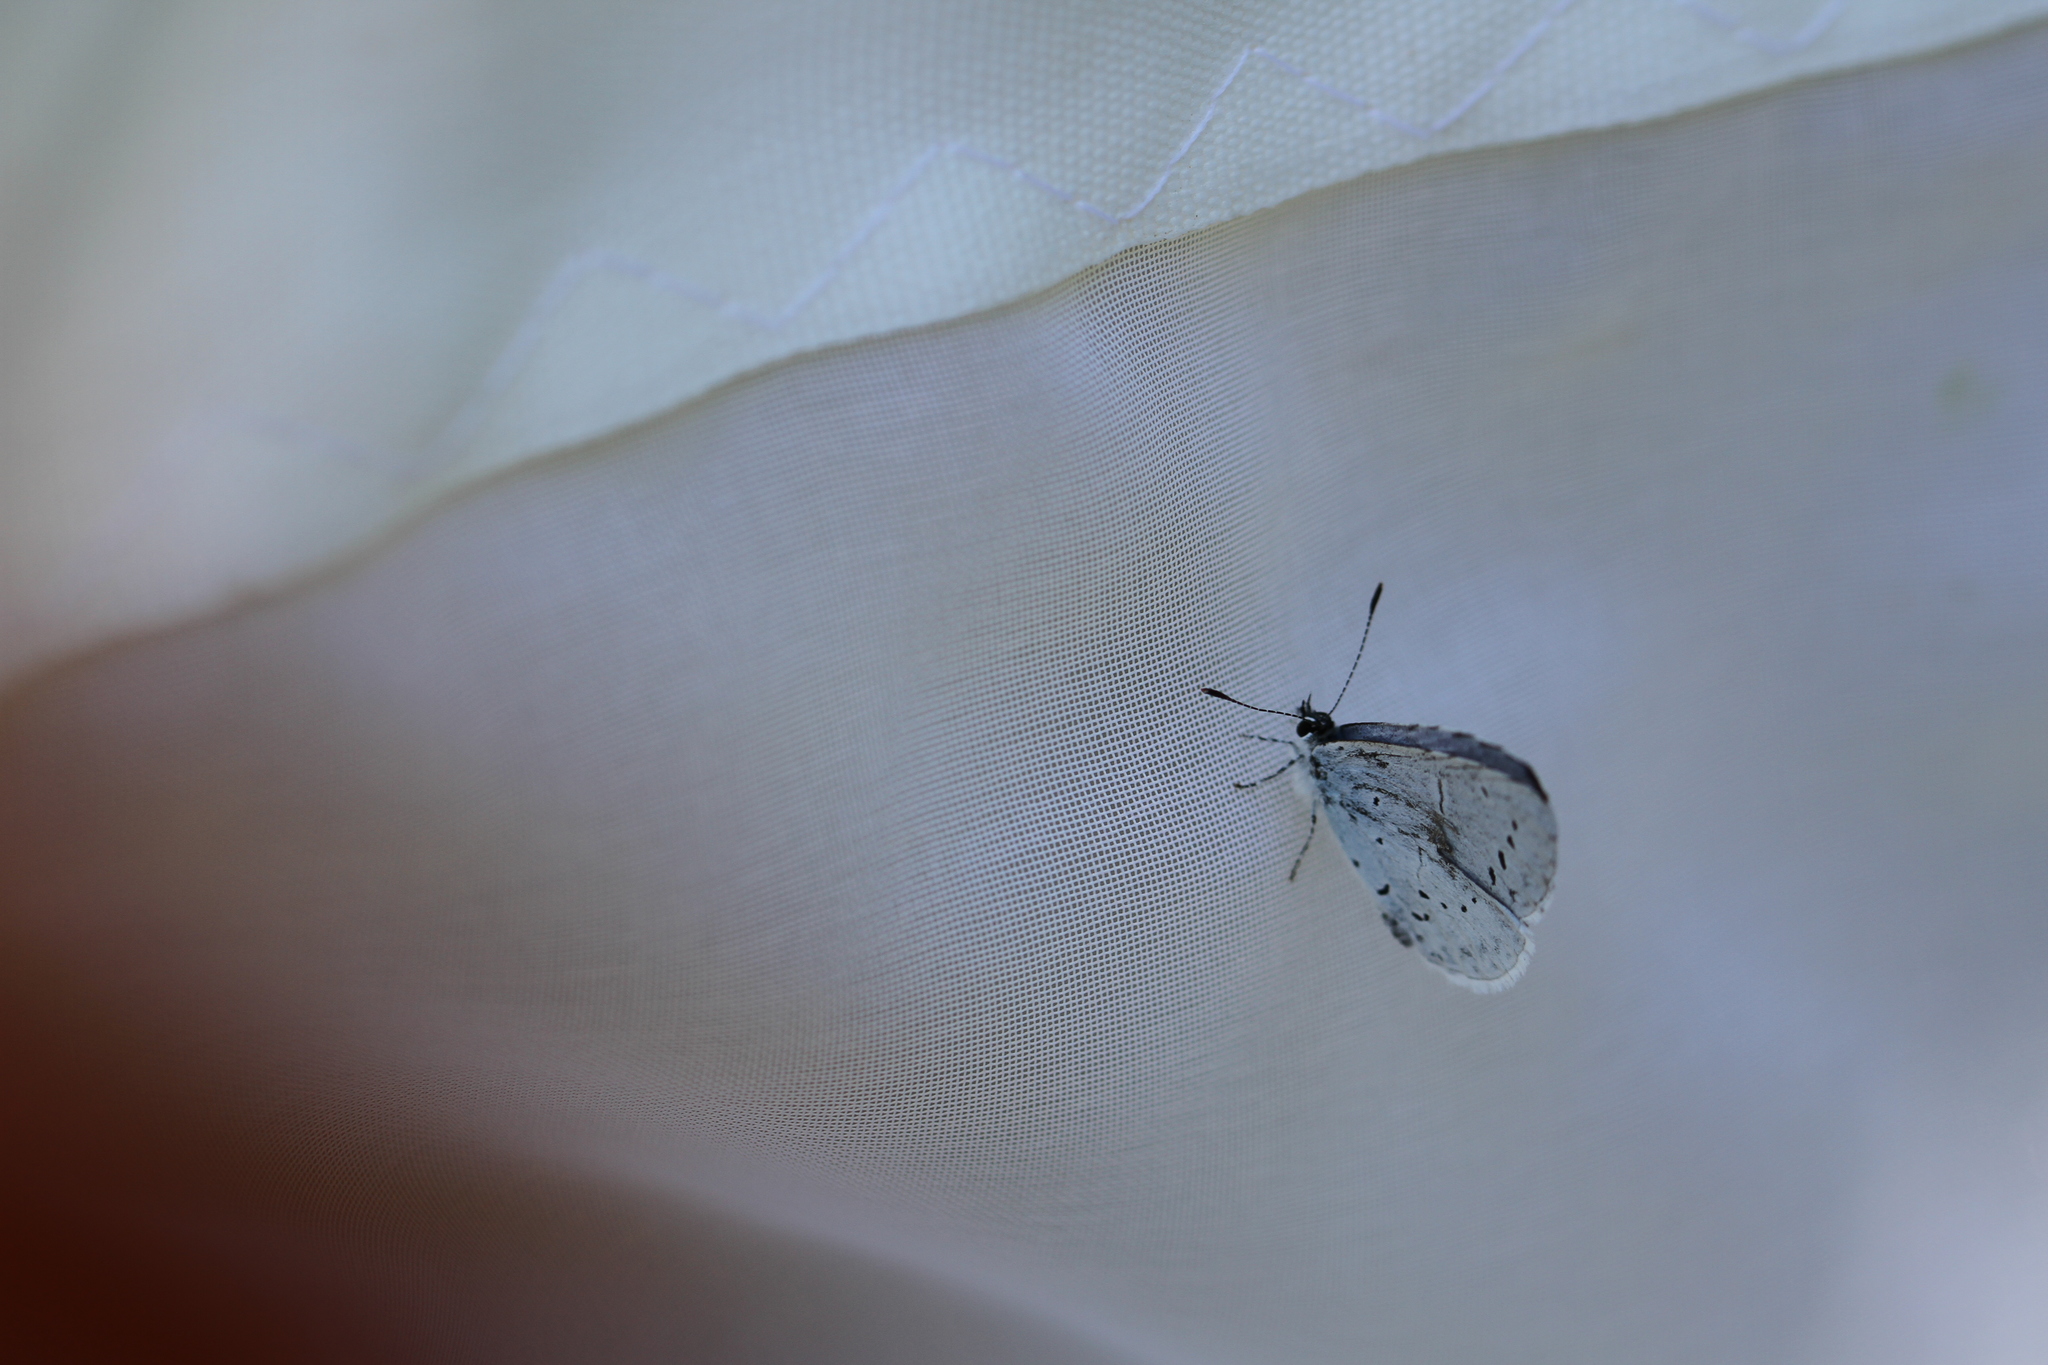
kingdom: Animalia
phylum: Arthropoda
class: Insecta
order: Lepidoptera
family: Lycaenidae
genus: Celastrina
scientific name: Celastrina argiolus
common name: Holly blue
